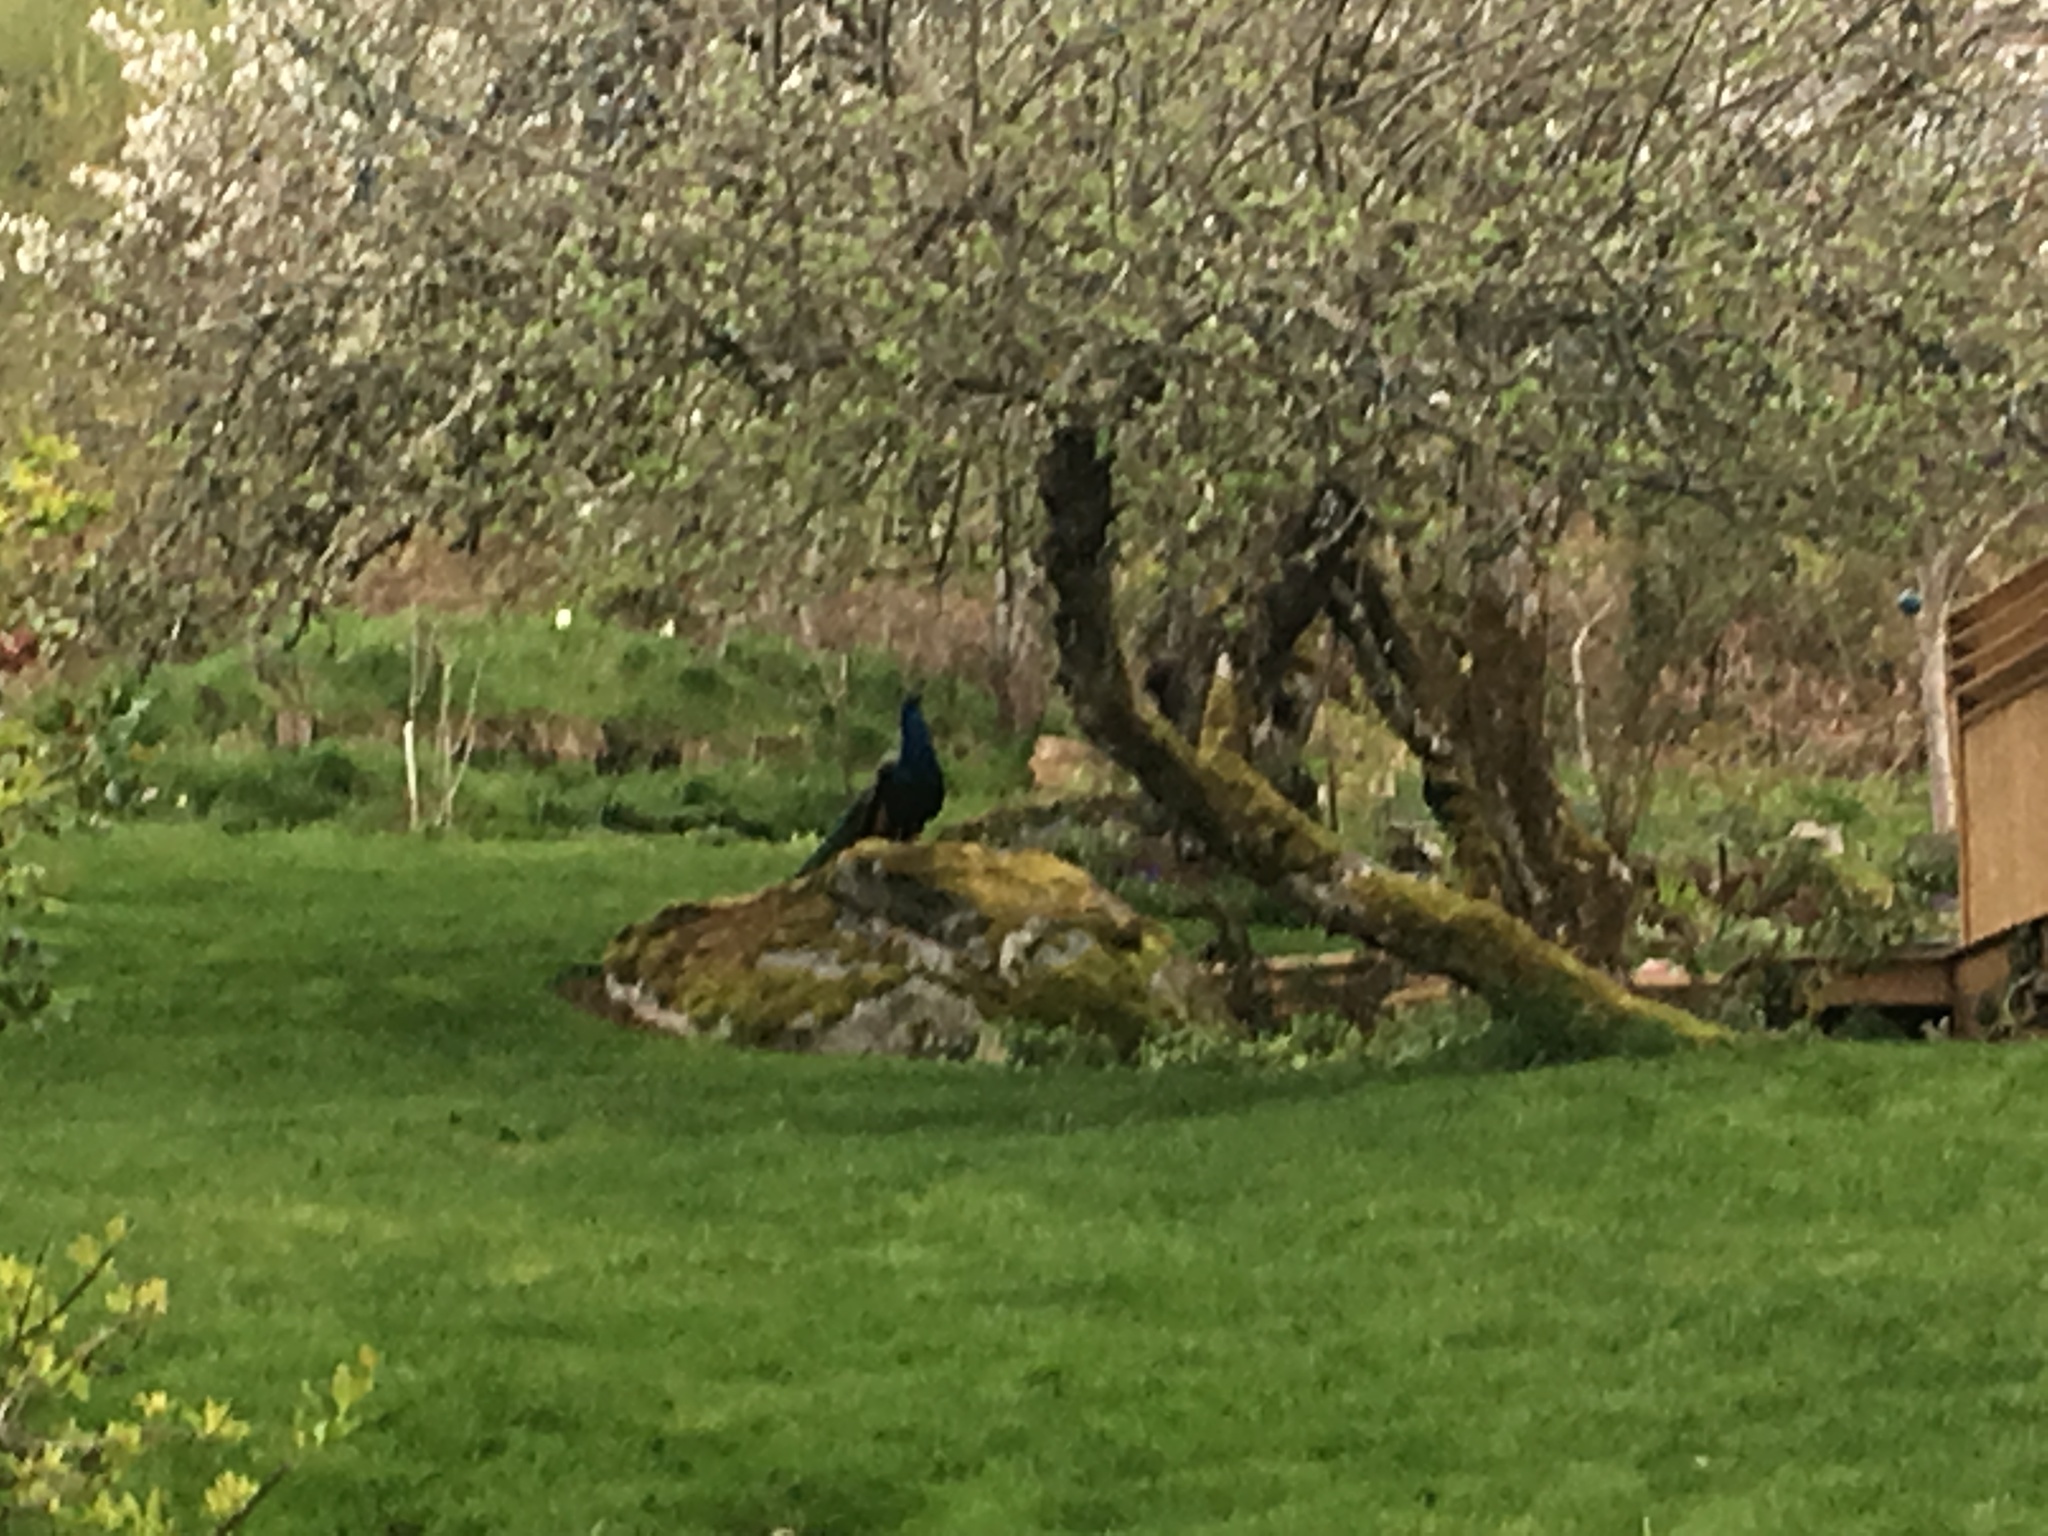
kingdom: Animalia
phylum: Chordata
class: Aves
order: Galliformes
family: Phasianidae
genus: Pavo
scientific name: Pavo cristatus
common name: Indian peafowl
